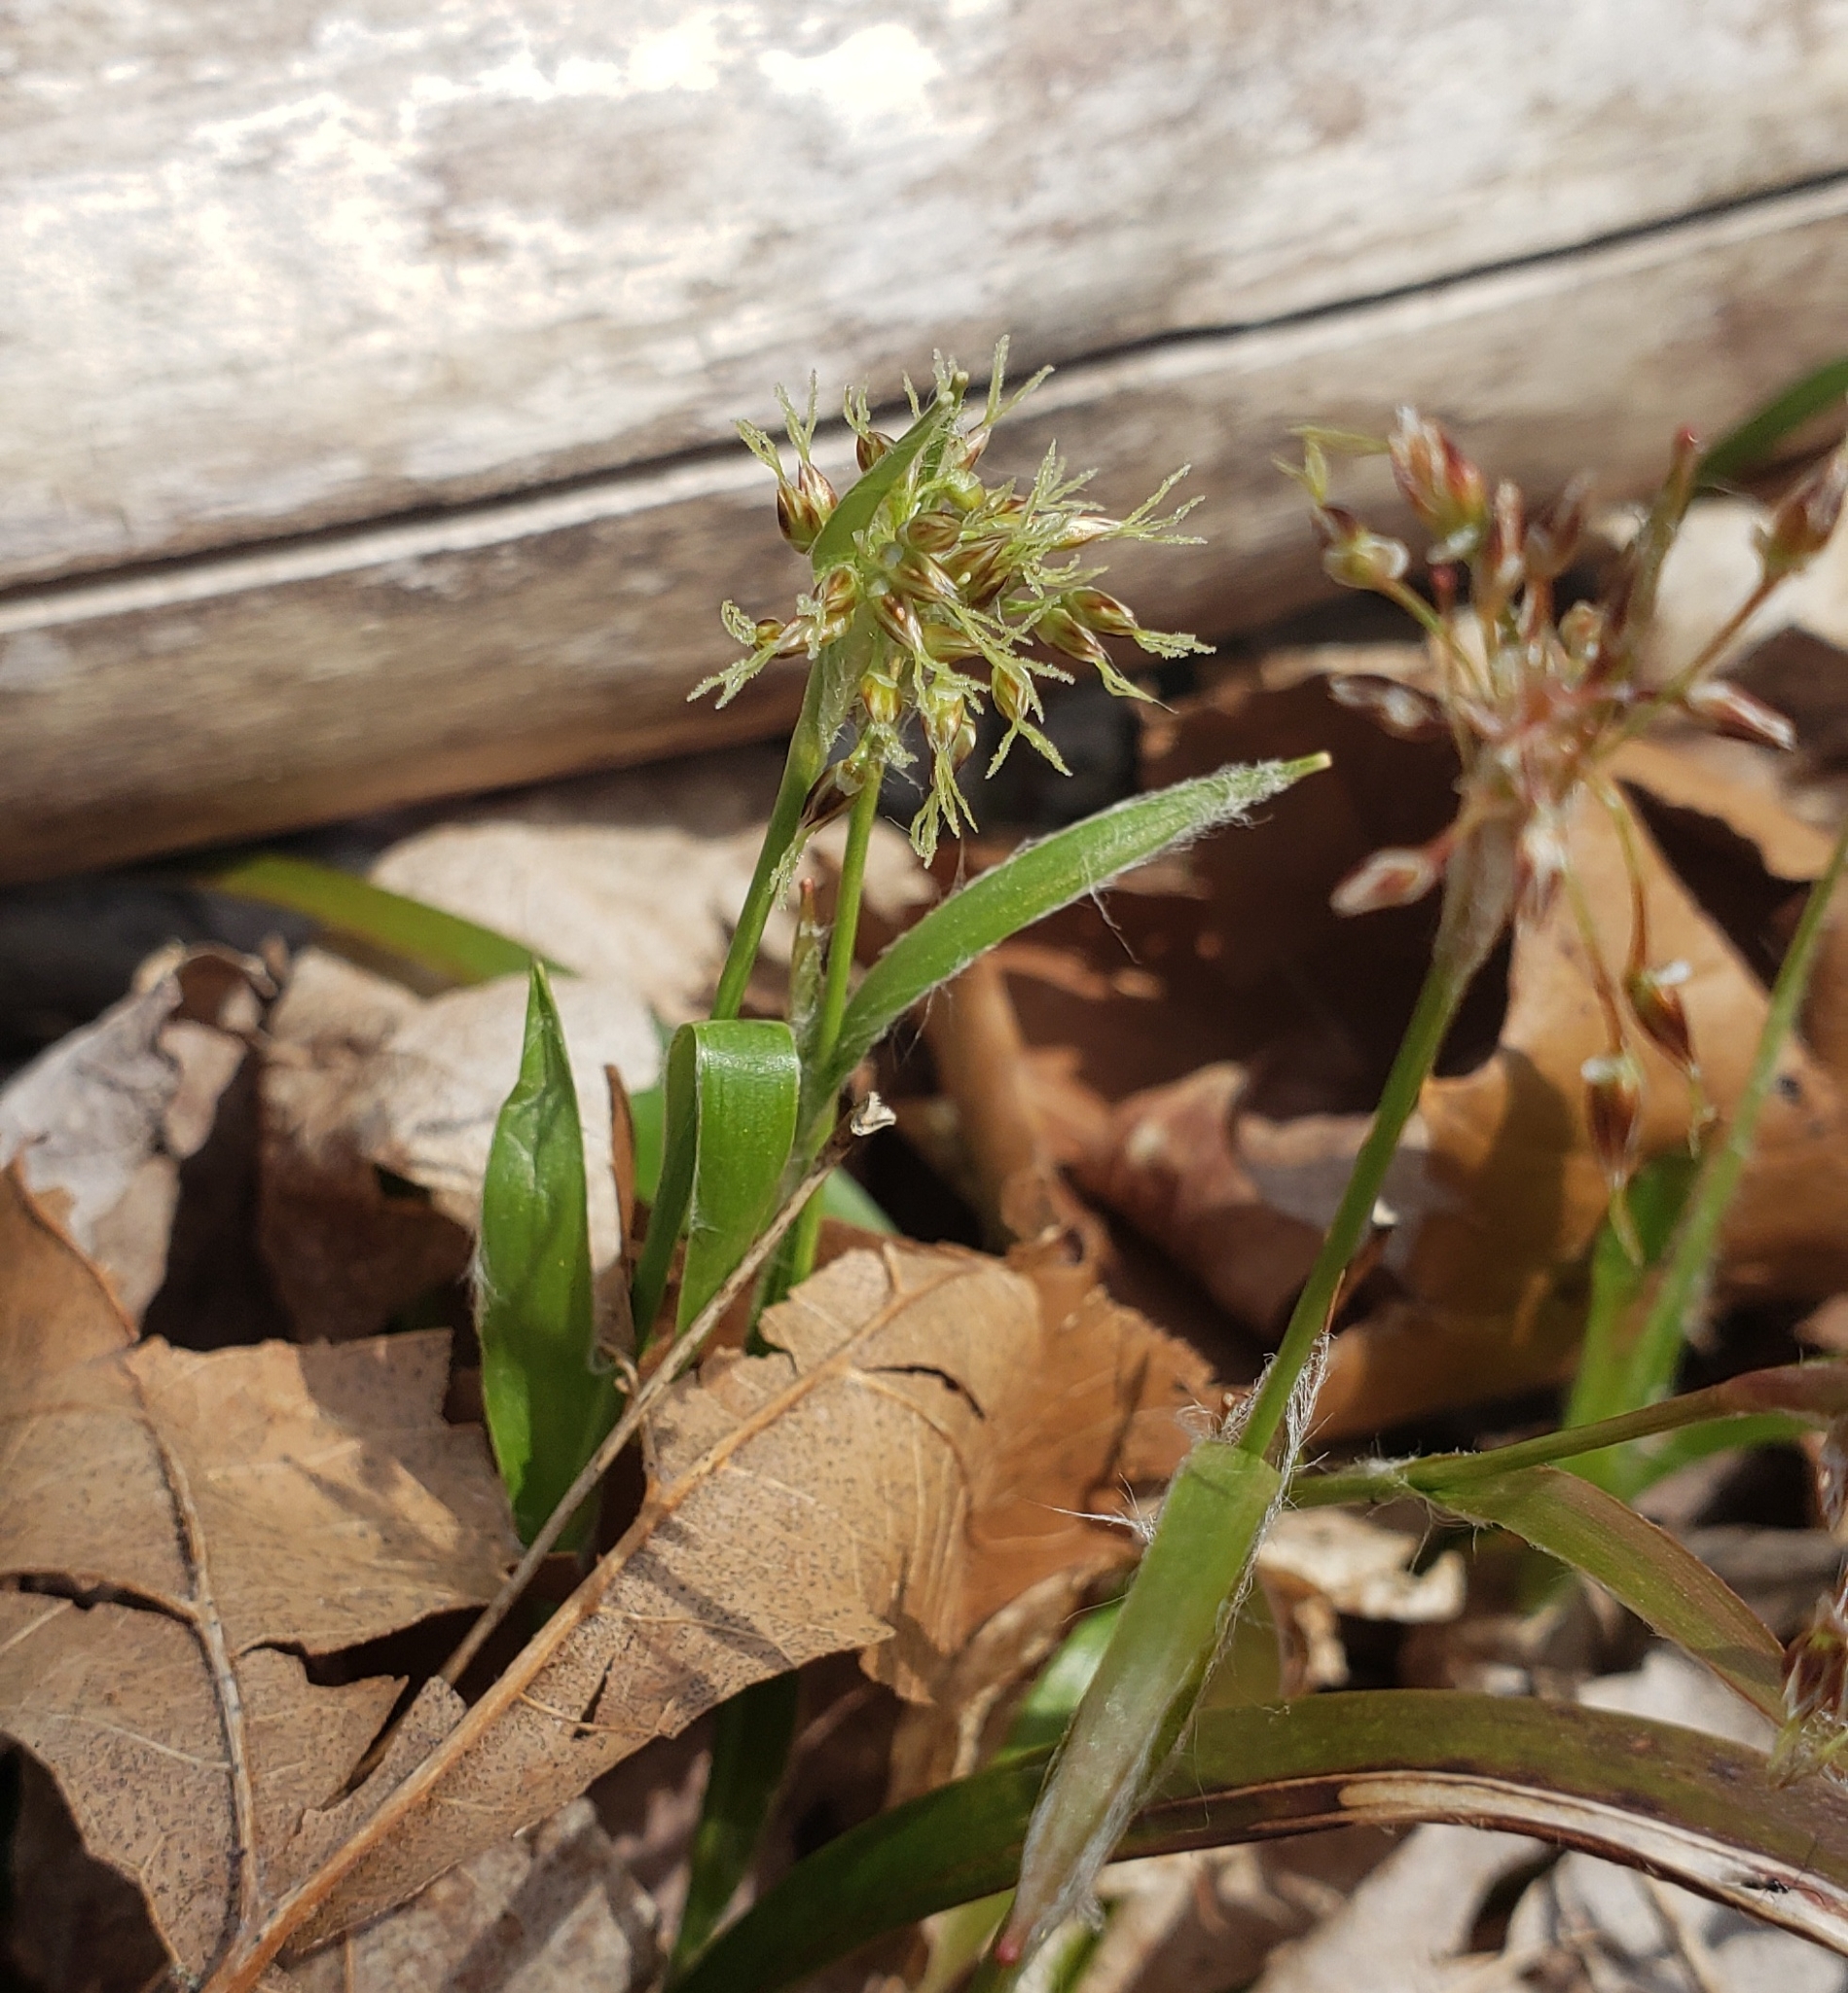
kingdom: Plantae
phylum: Tracheophyta
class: Liliopsida
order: Poales
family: Juncaceae
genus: Luzula
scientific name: Luzula acuminata
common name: Hairy woodrush
